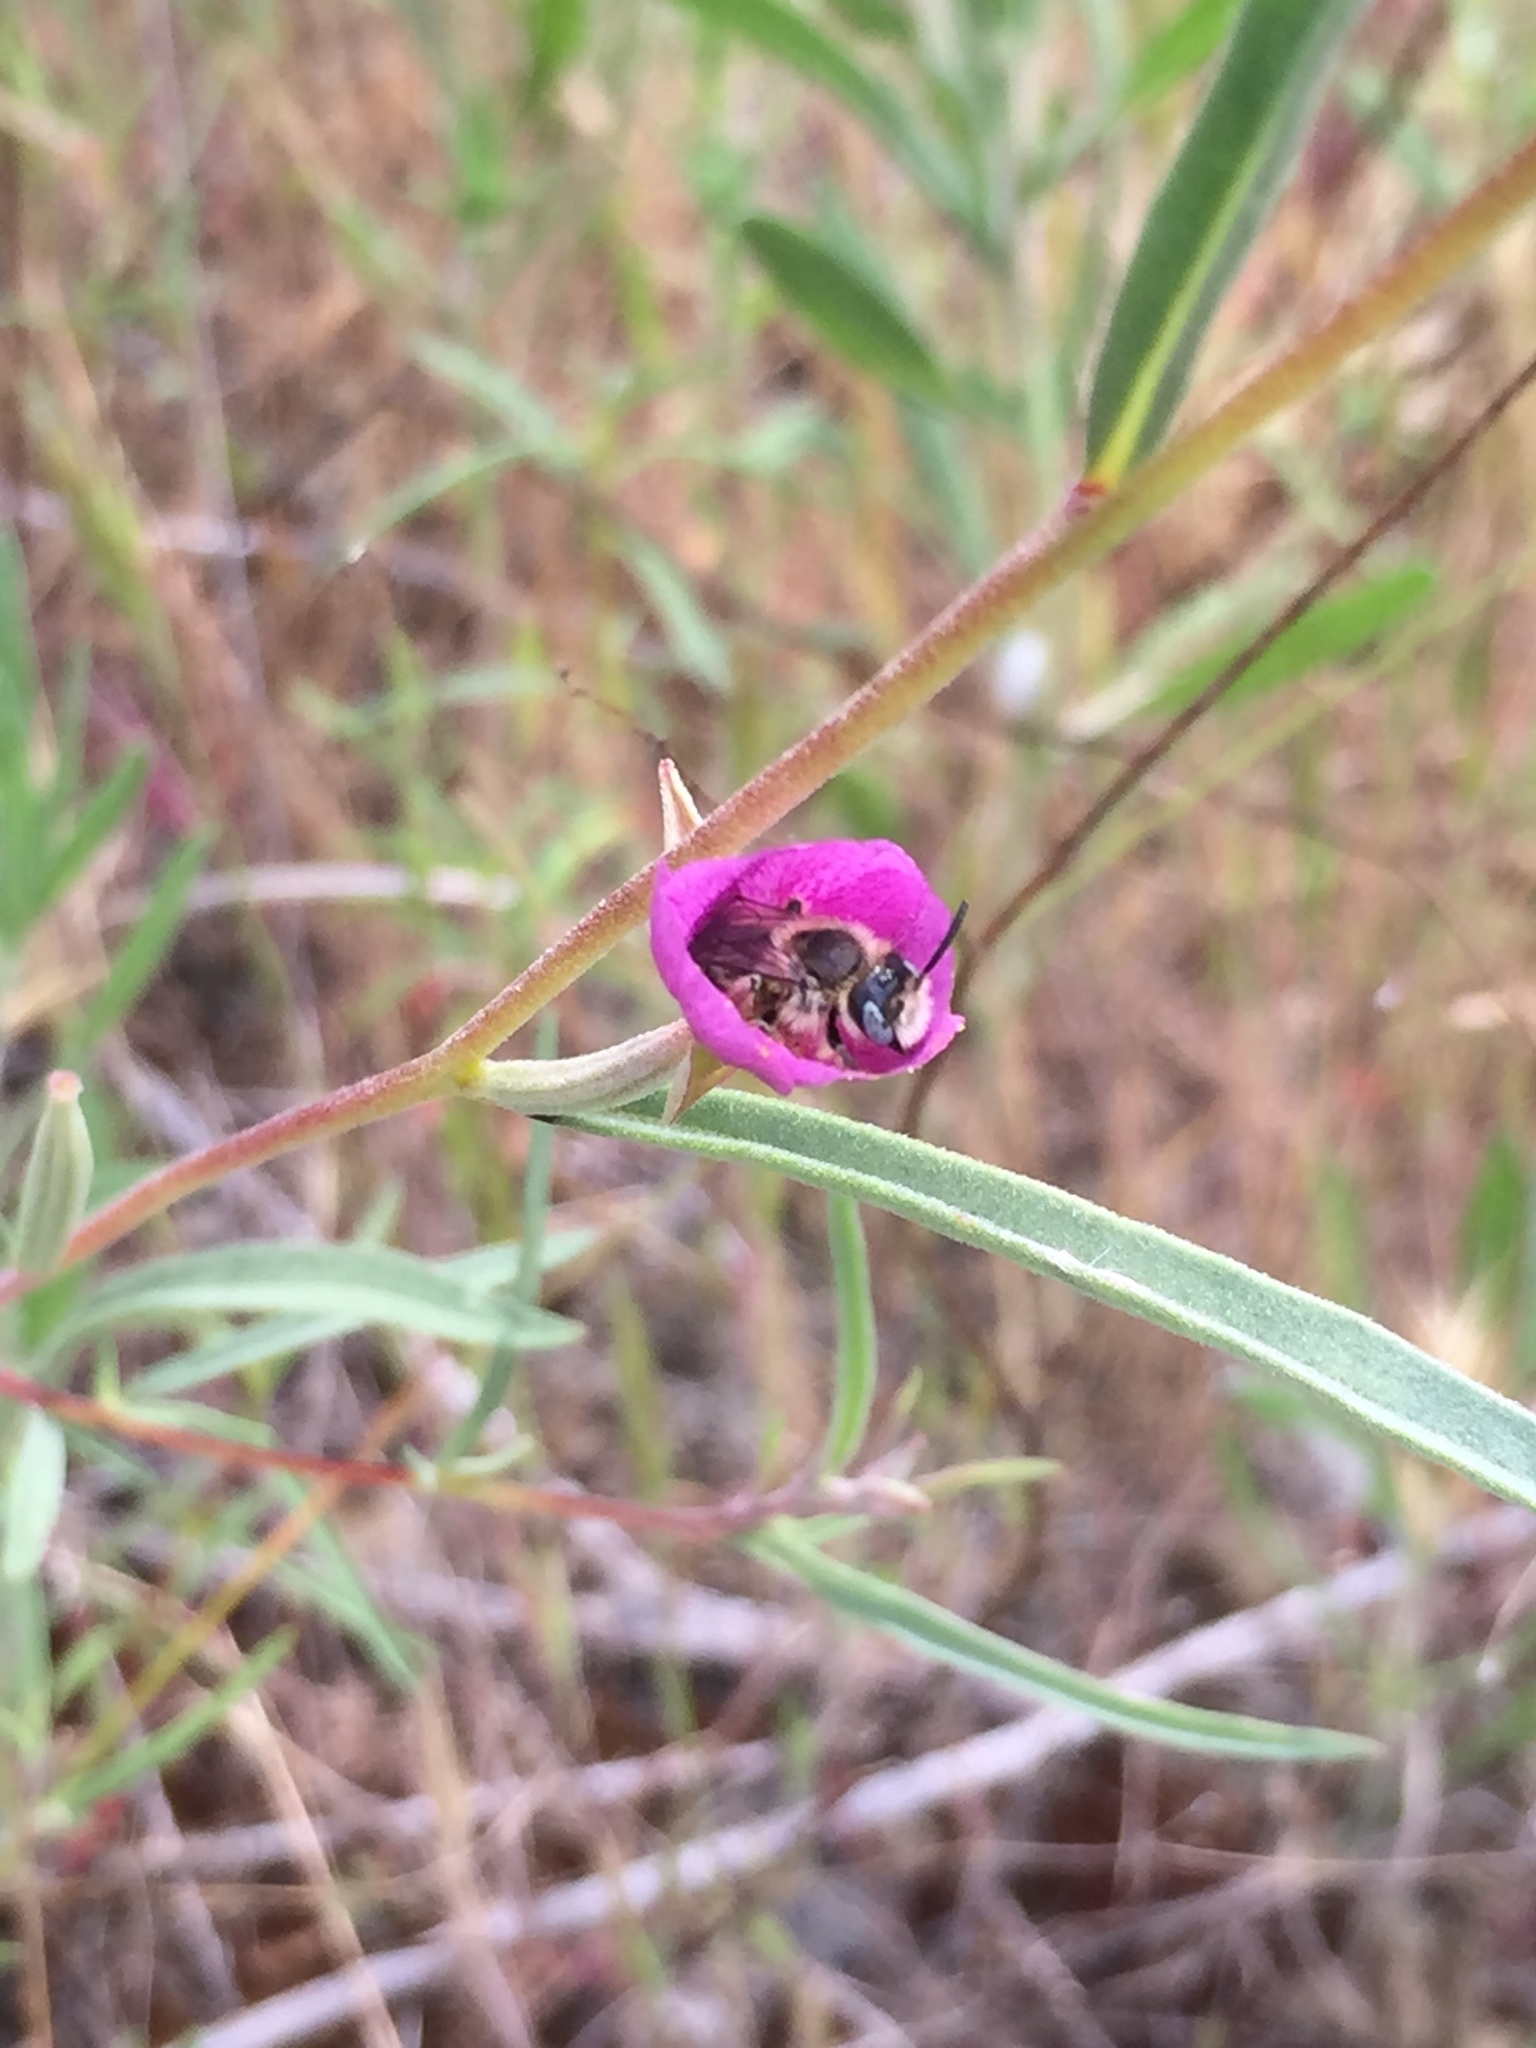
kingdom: Animalia
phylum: Arthropoda
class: Insecta
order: Hymenoptera
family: Melittidae
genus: Hesperapis
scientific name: Hesperapis
